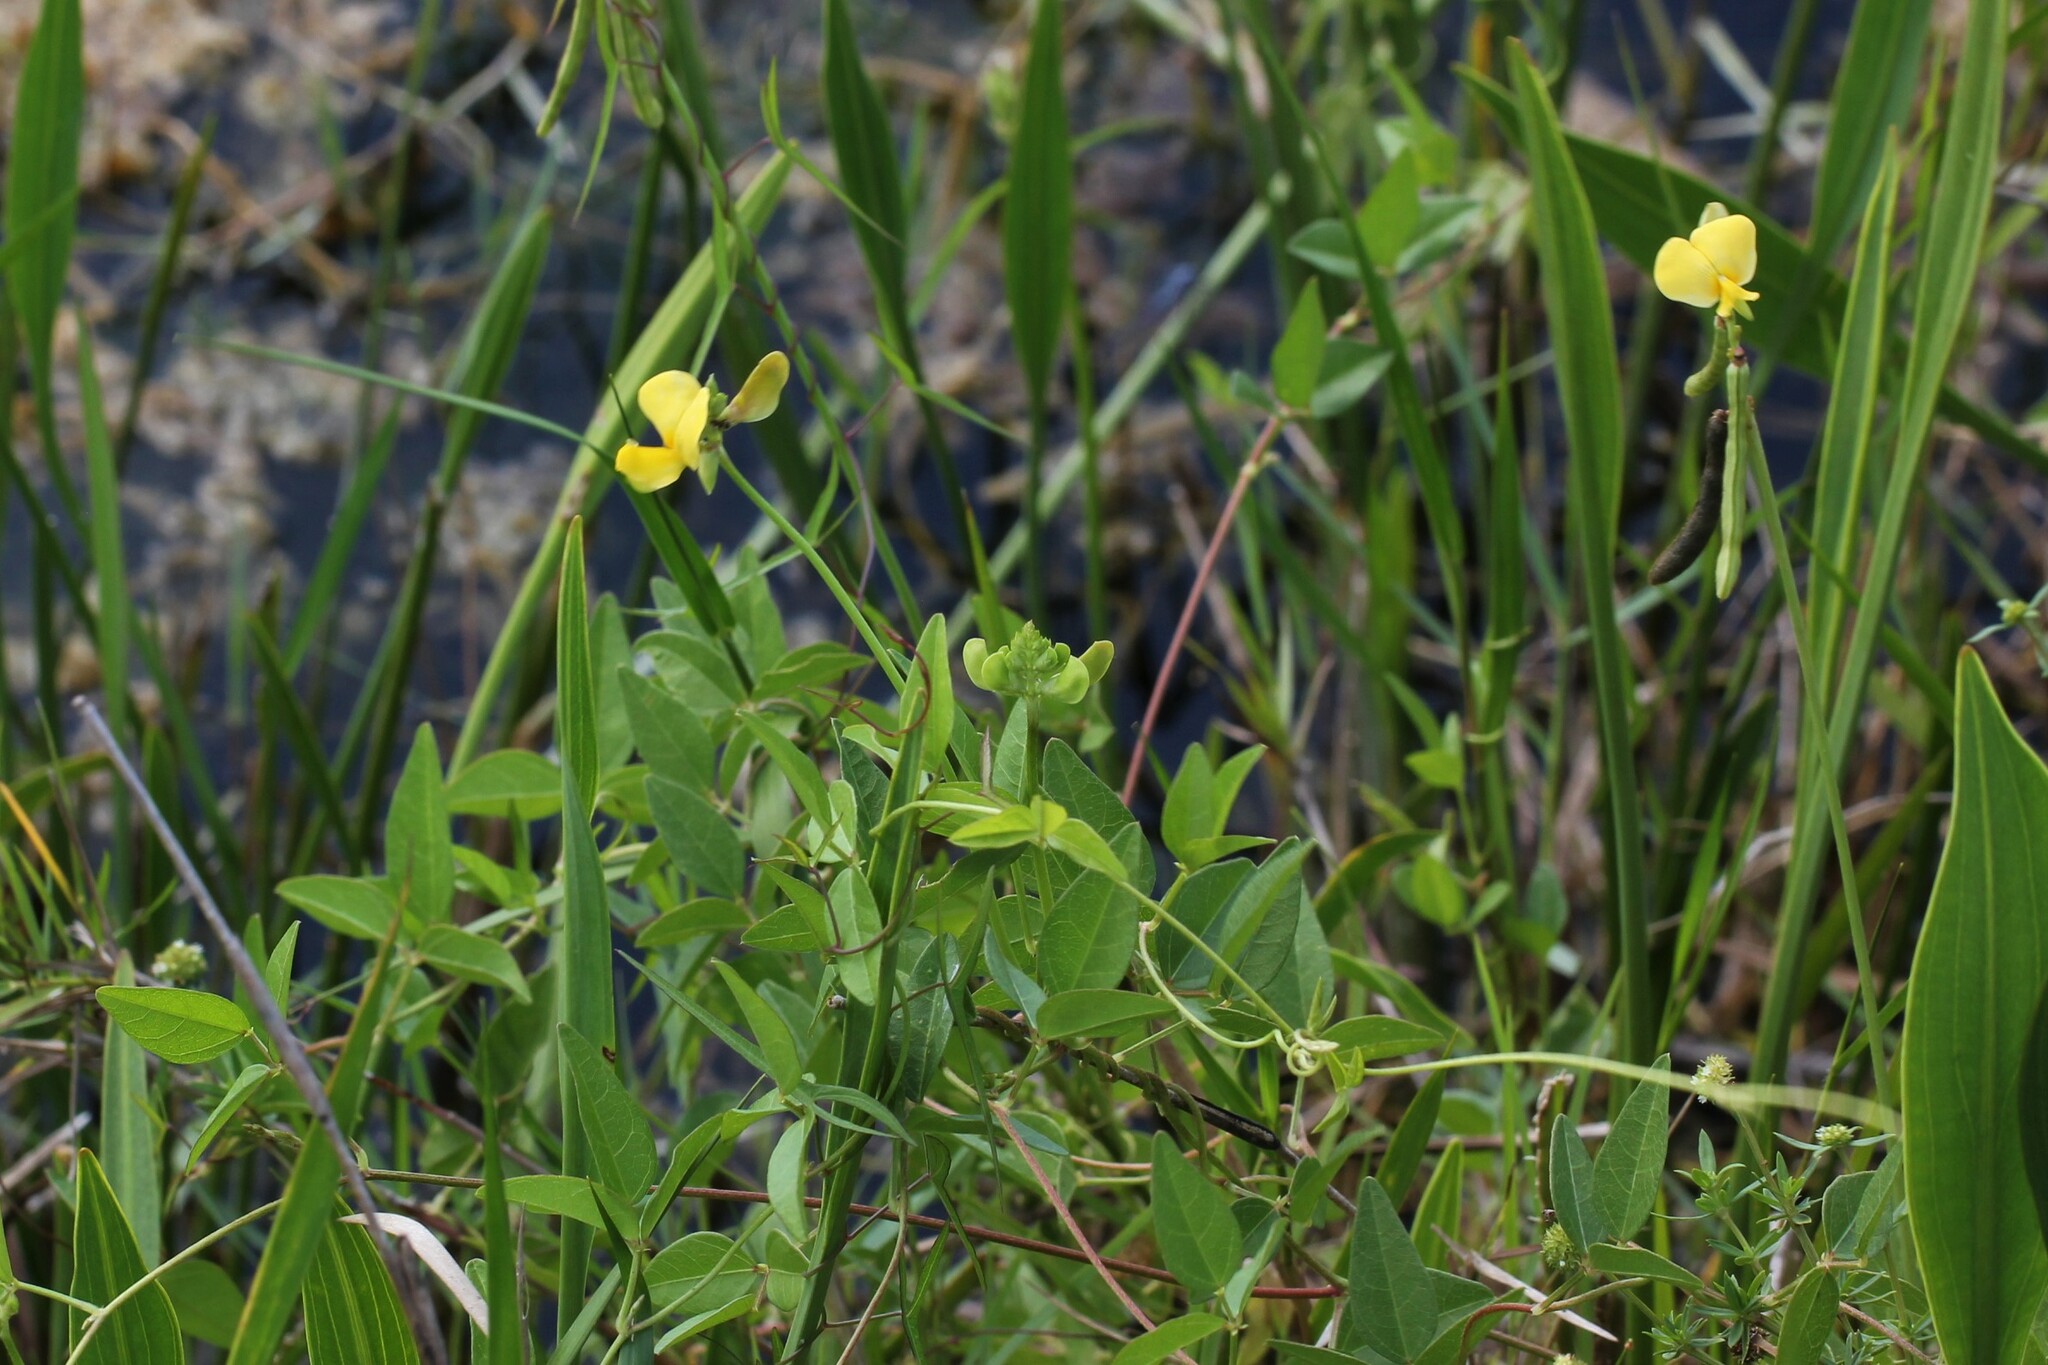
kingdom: Plantae
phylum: Tracheophyta
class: Magnoliopsida
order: Fabales
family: Fabaceae
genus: Vigna
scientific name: Vigna luteola
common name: Hairypod cowpea
